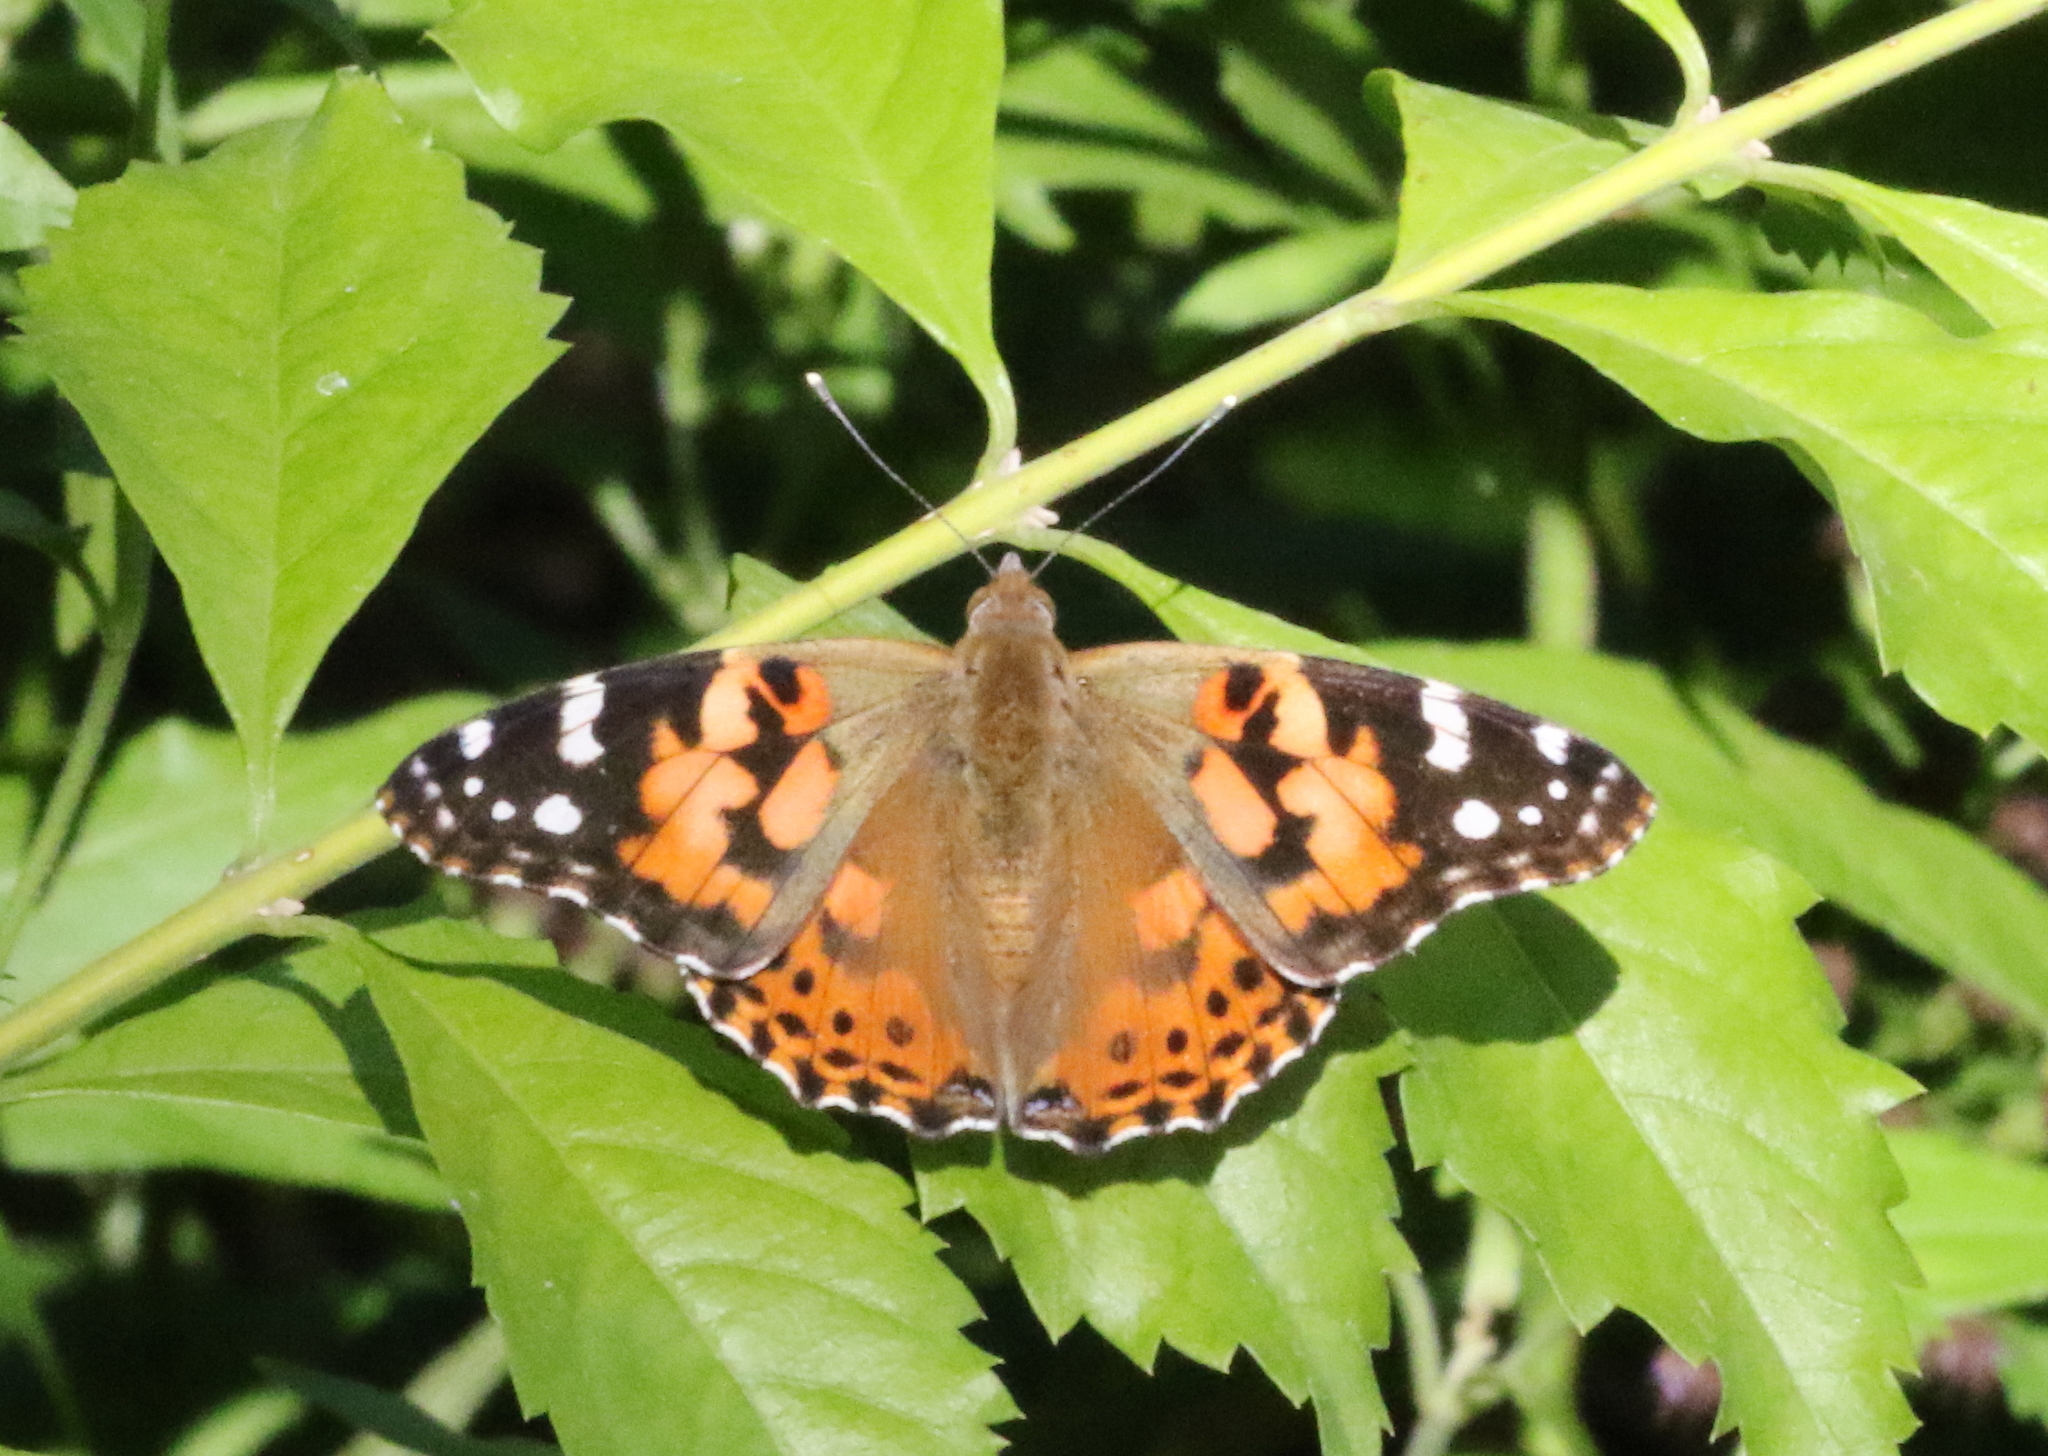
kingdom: Animalia
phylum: Arthropoda
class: Insecta
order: Lepidoptera
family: Nymphalidae
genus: Vanessa
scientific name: Vanessa cardui
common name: Painted lady
